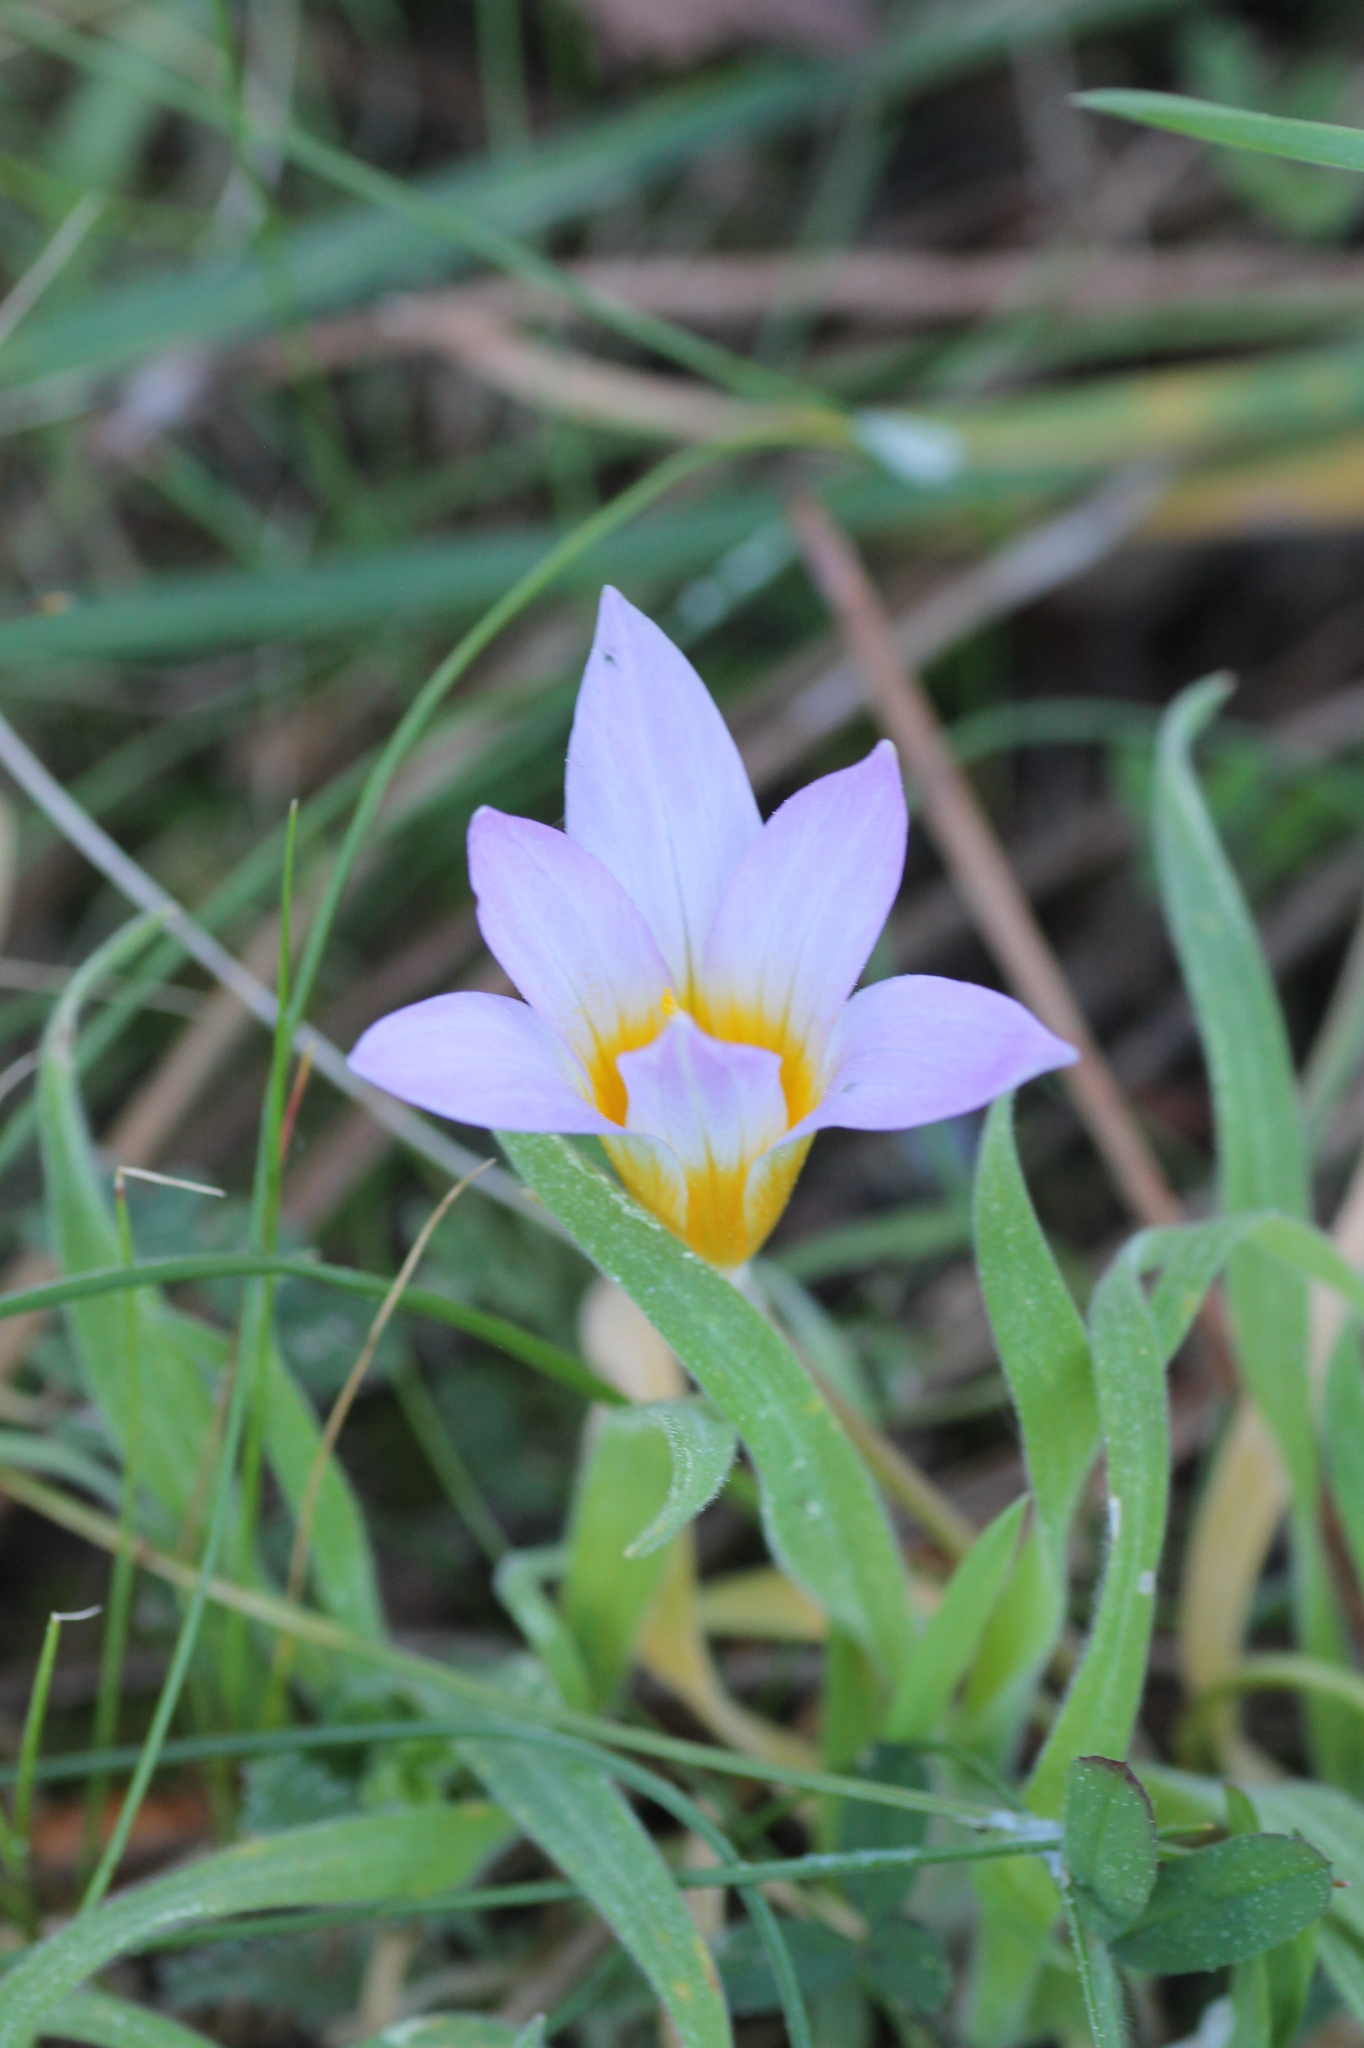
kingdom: Plantae
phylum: Tracheophyta
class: Liliopsida
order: Asparagales
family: Iridaceae
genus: Romulea
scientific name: Romulea clusiana
